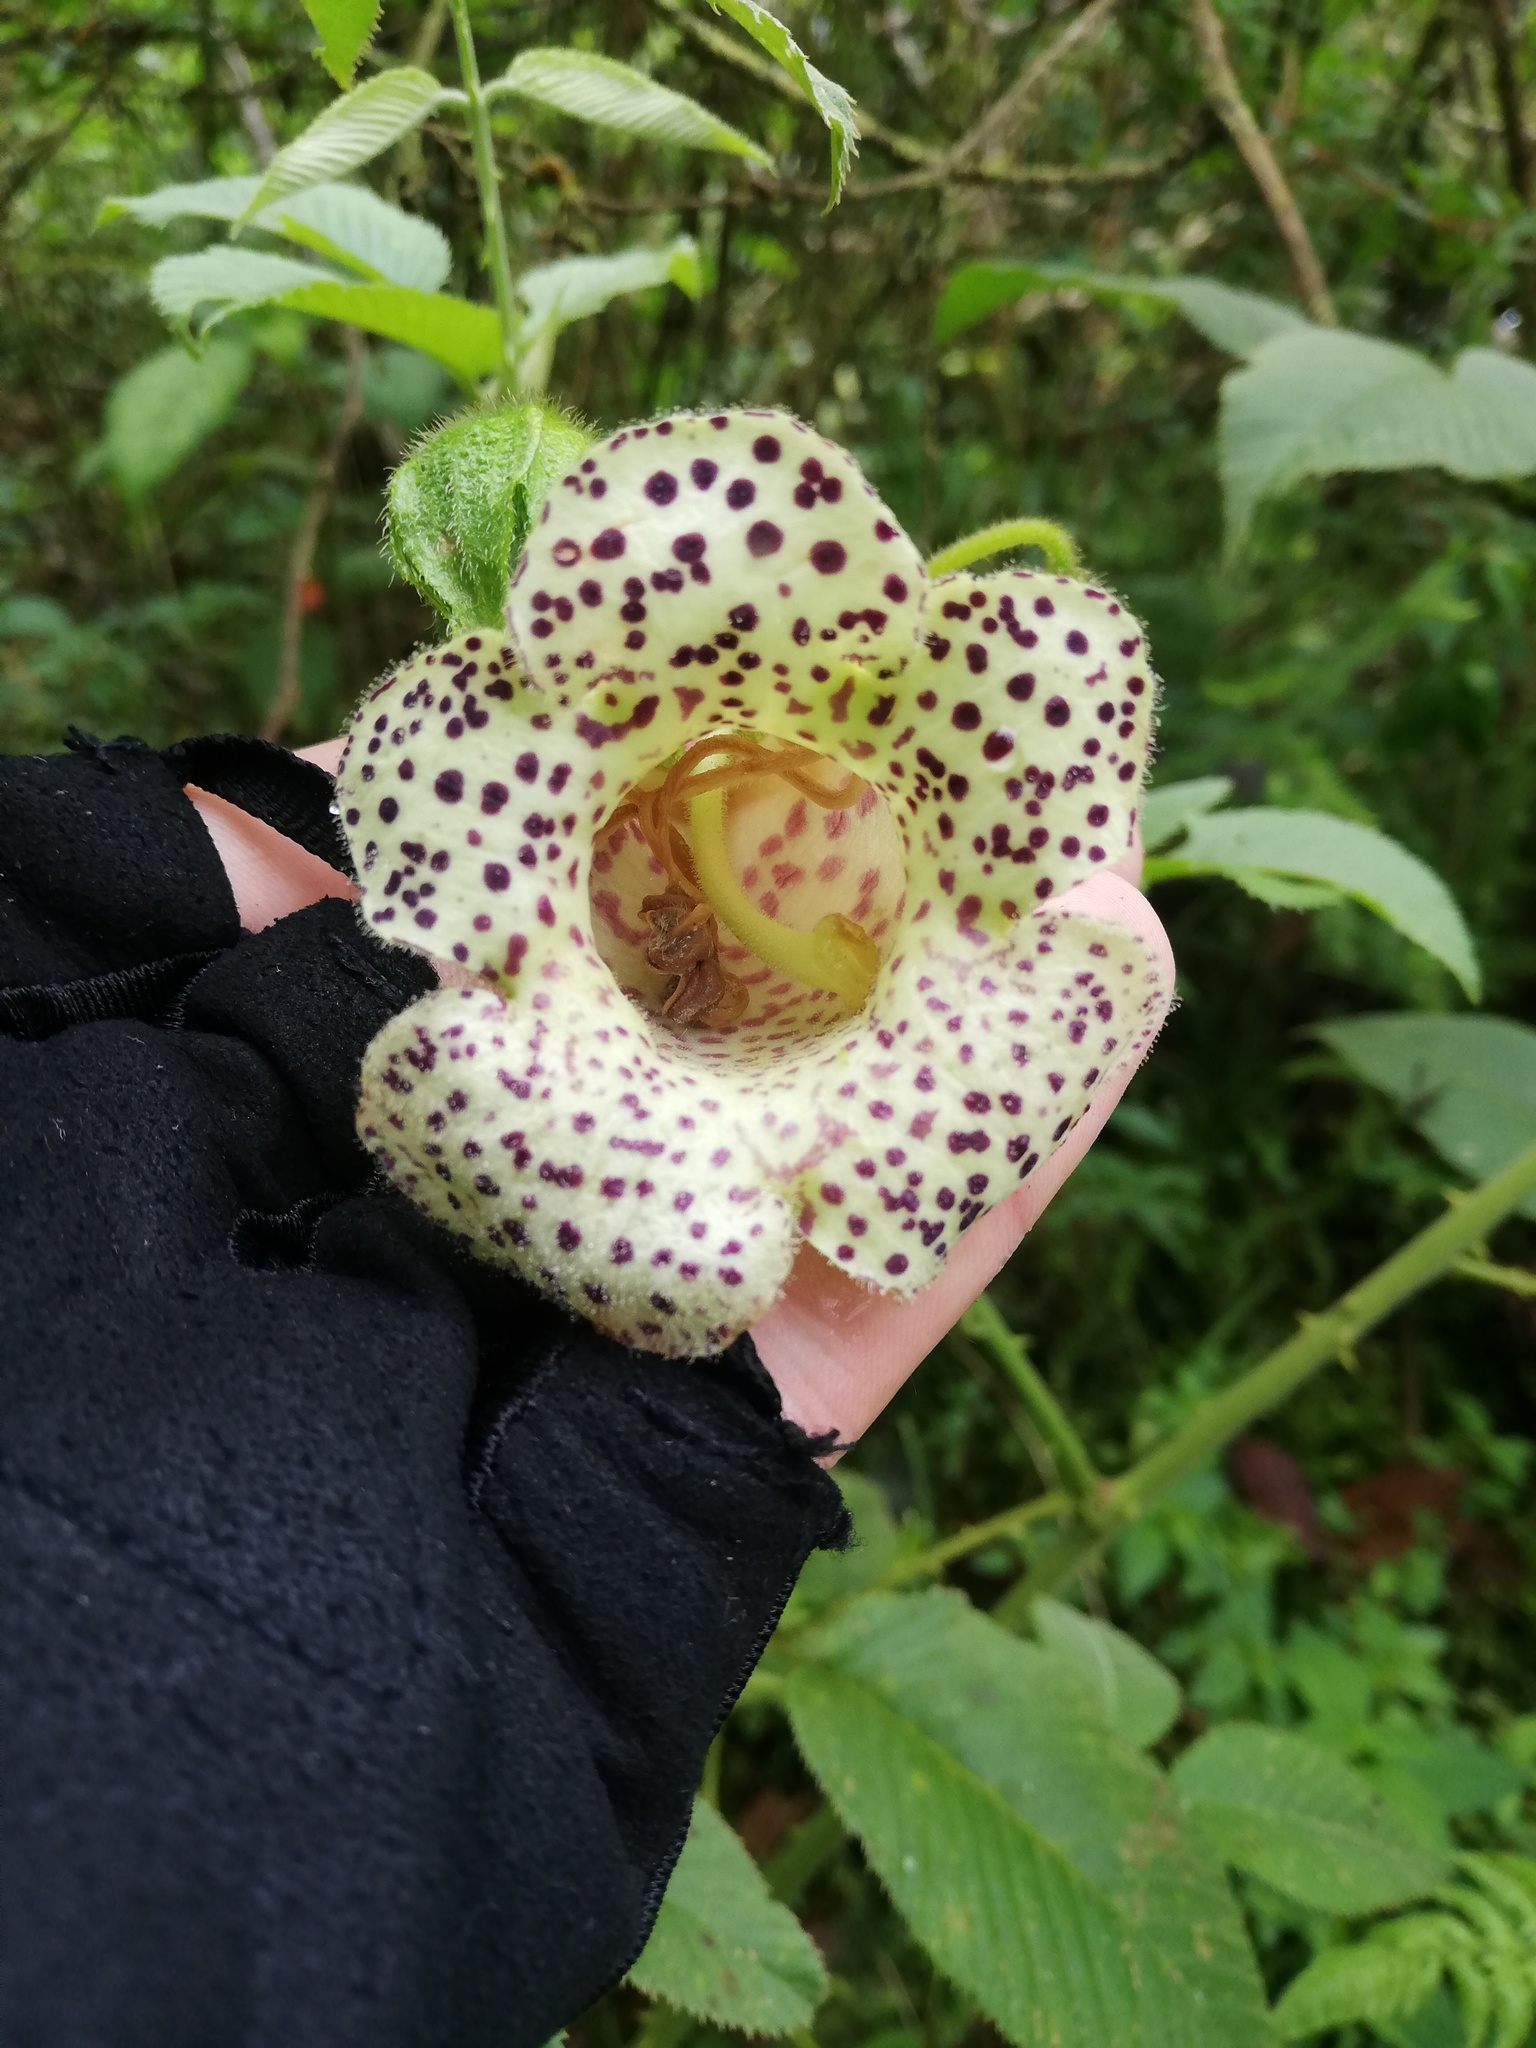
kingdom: Plantae
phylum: Tracheophyta
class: Magnoliopsida
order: Lamiales
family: Gesneriaceae
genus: Kohleria
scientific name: Kohleria tigridia
